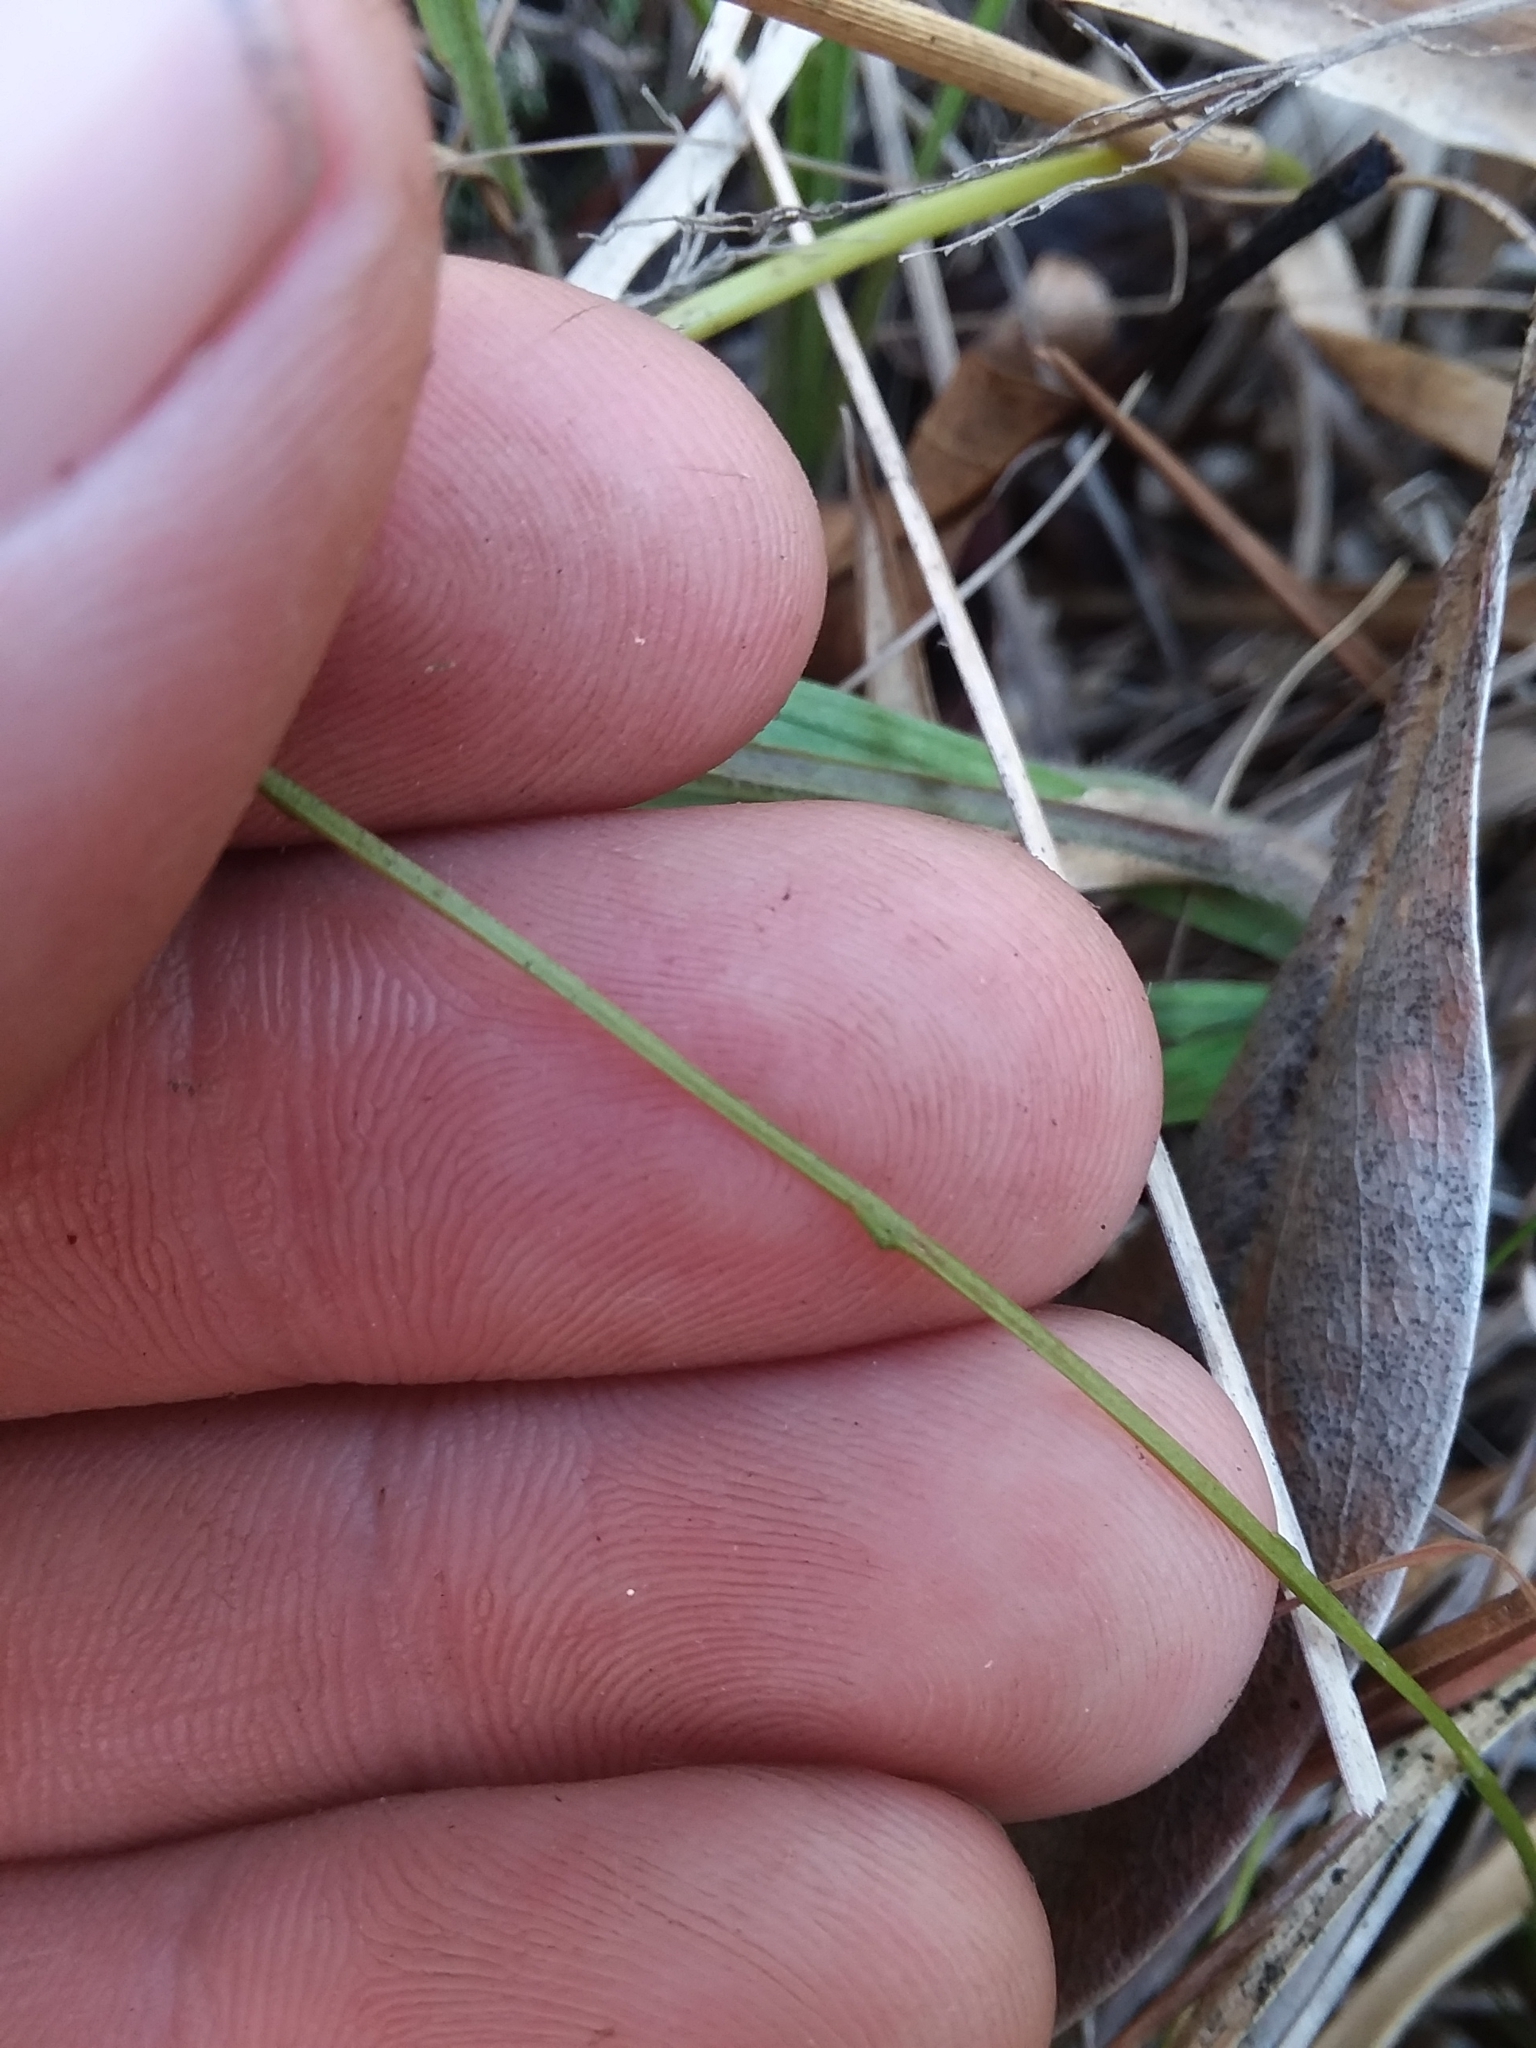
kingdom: Plantae
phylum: Tracheophyta
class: Magnoliopsida
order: Gentianales
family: Gentianaceae
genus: Bartonia
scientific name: Bartonia paniculata
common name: Branched bartonia
